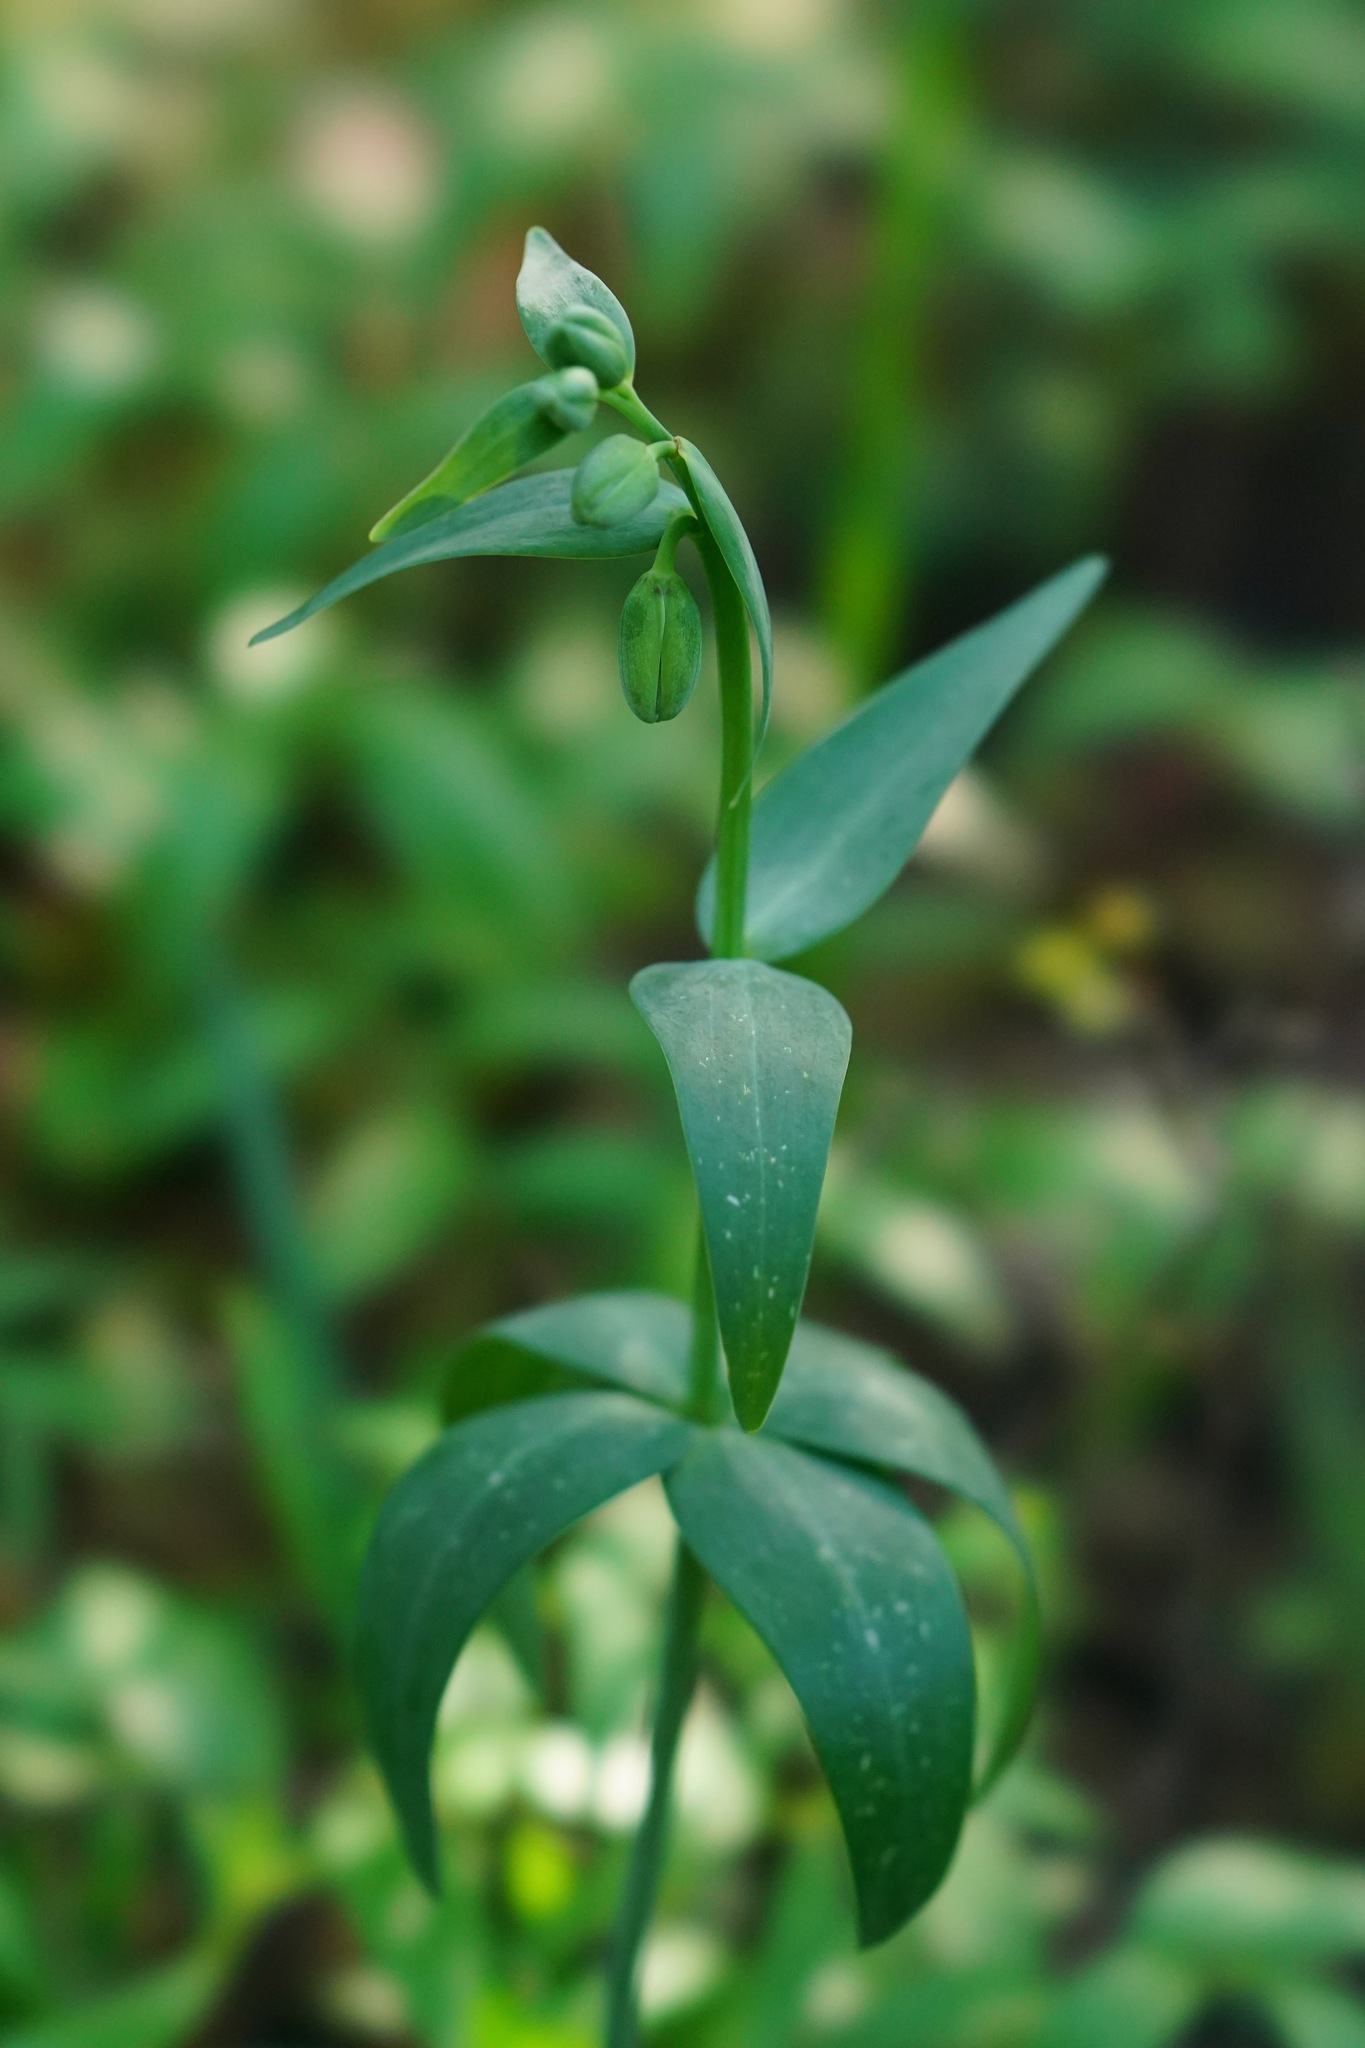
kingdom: Plantae
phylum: Tracheophyta
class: Liliopsida
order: Liliales
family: Liliaceae
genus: Fritillaria
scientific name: Fritillaria affinis
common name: Ojai fritillary
